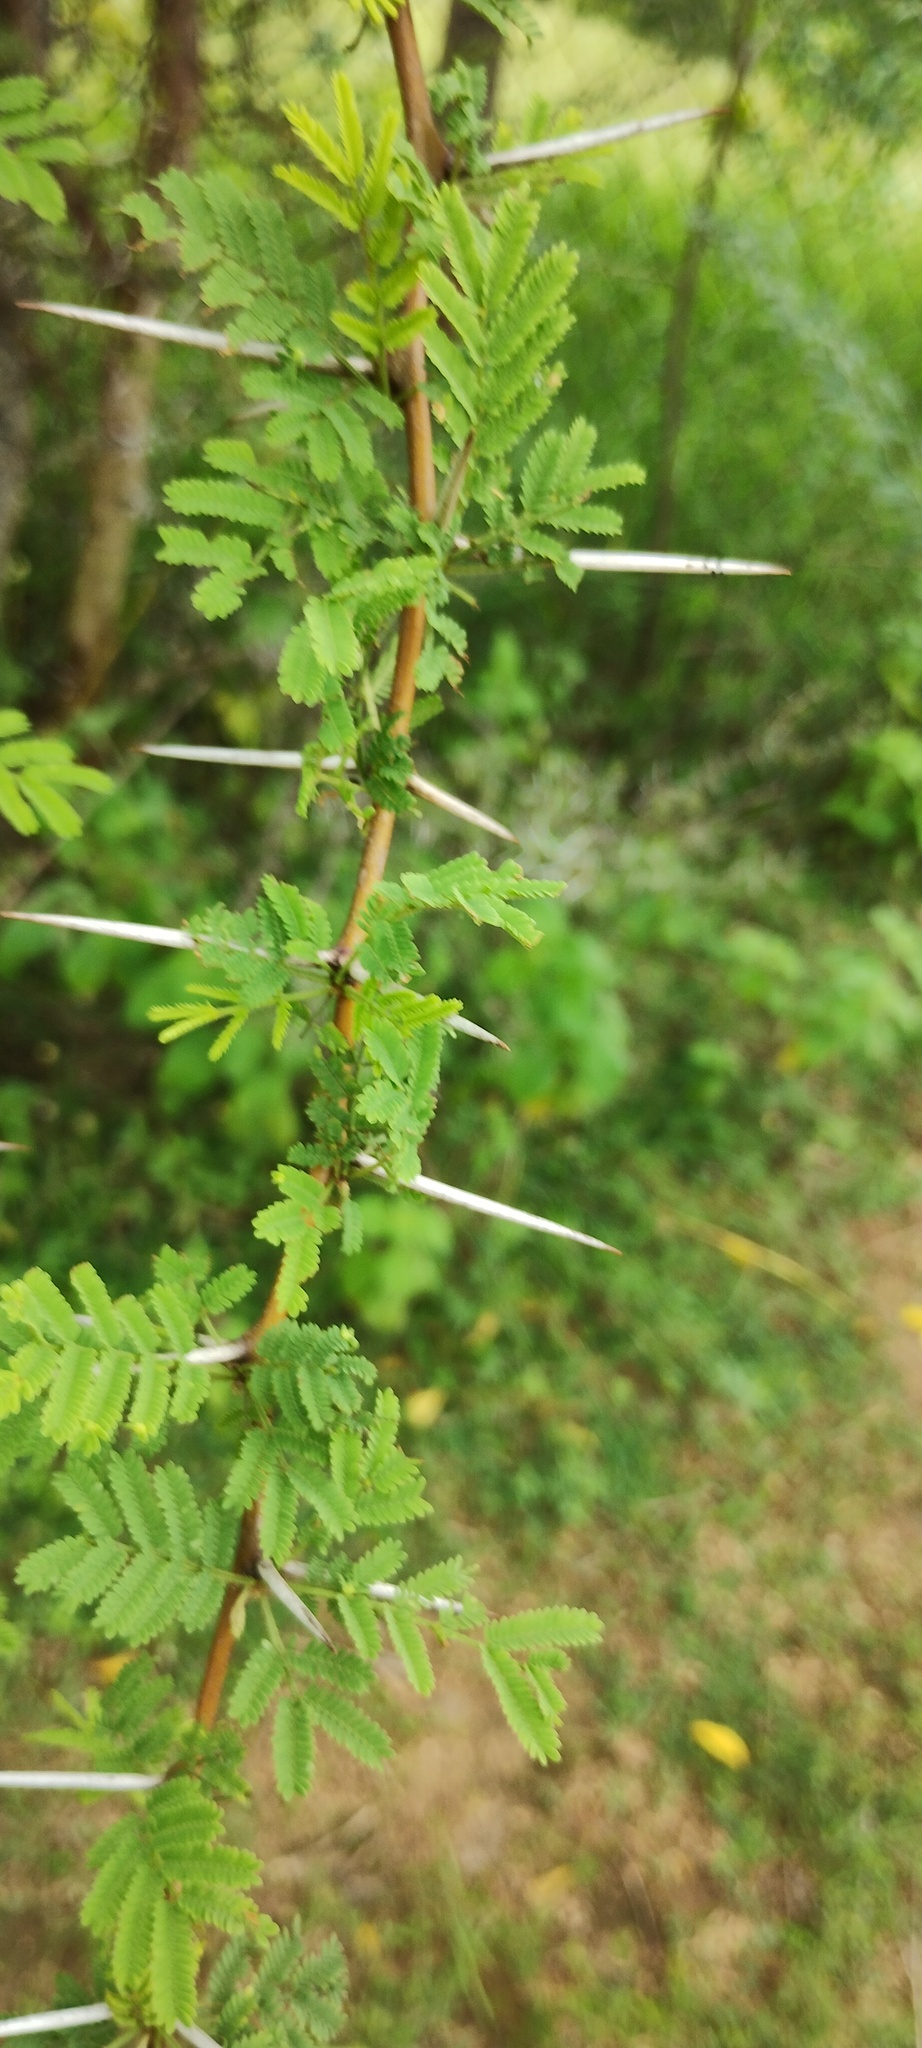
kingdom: Plantae
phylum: Tracheophyta
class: Magnoliopsida
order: Fabales
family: Fabaceae
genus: Vachellia
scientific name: Vachellia nilotica
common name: Arabic gumtree
